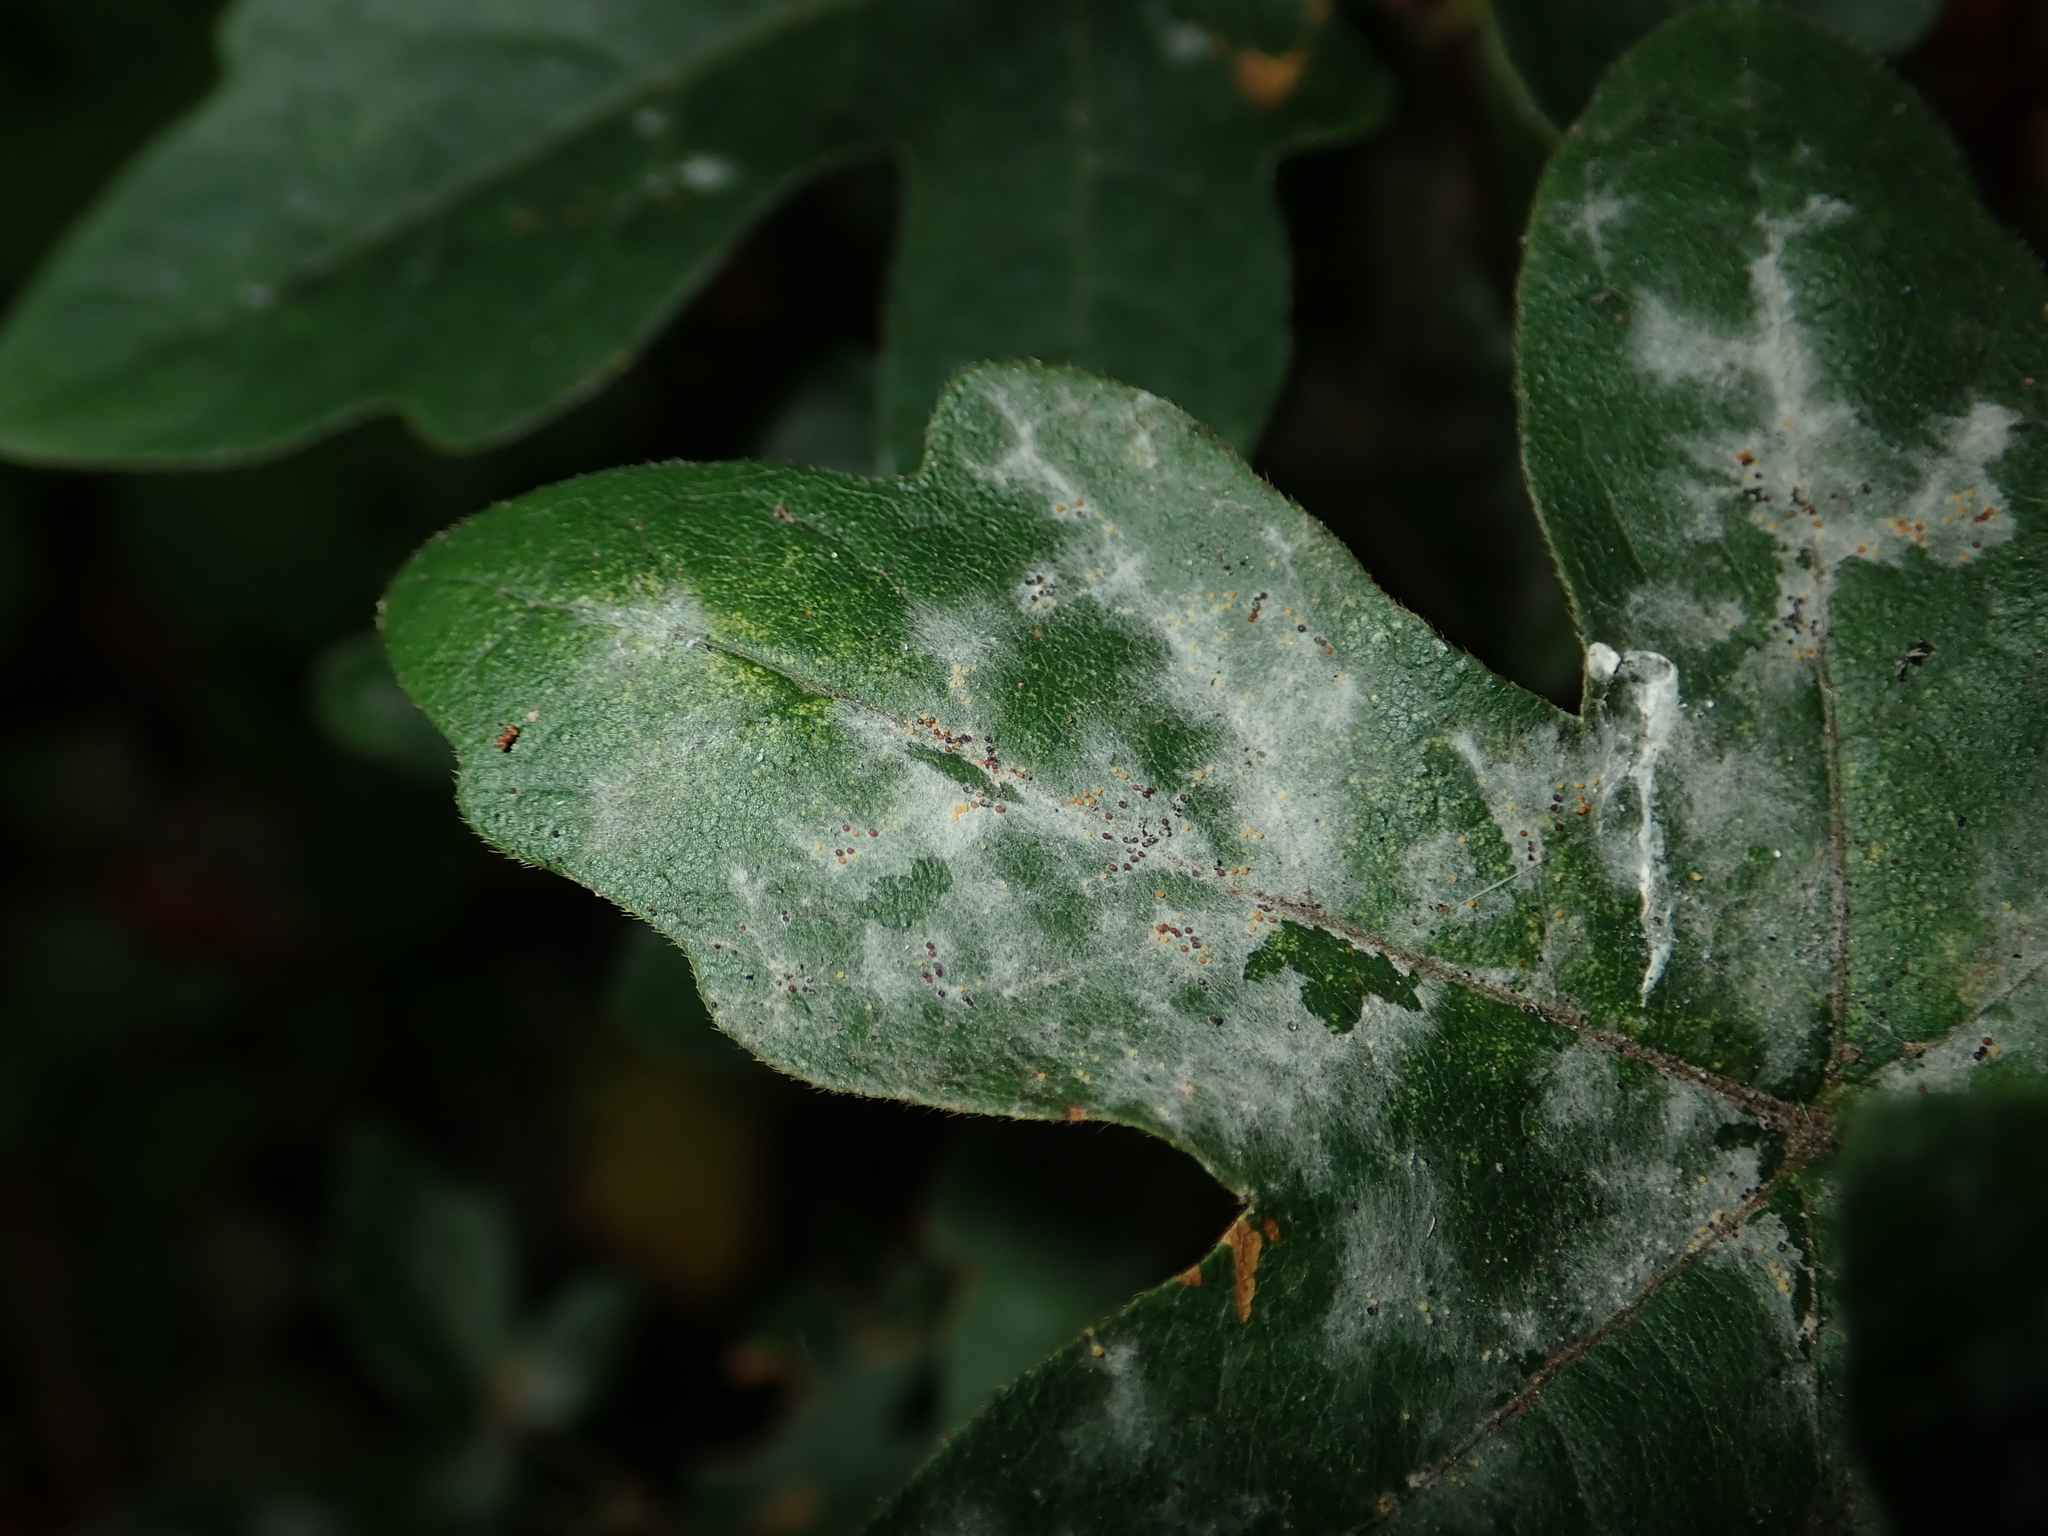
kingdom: Fungi
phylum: Ascomycota
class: Leotiomycetes
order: Helotiales
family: Erysiphaceae
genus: Sawadaea
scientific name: Sawadaea bicornis
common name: Maple mildew
